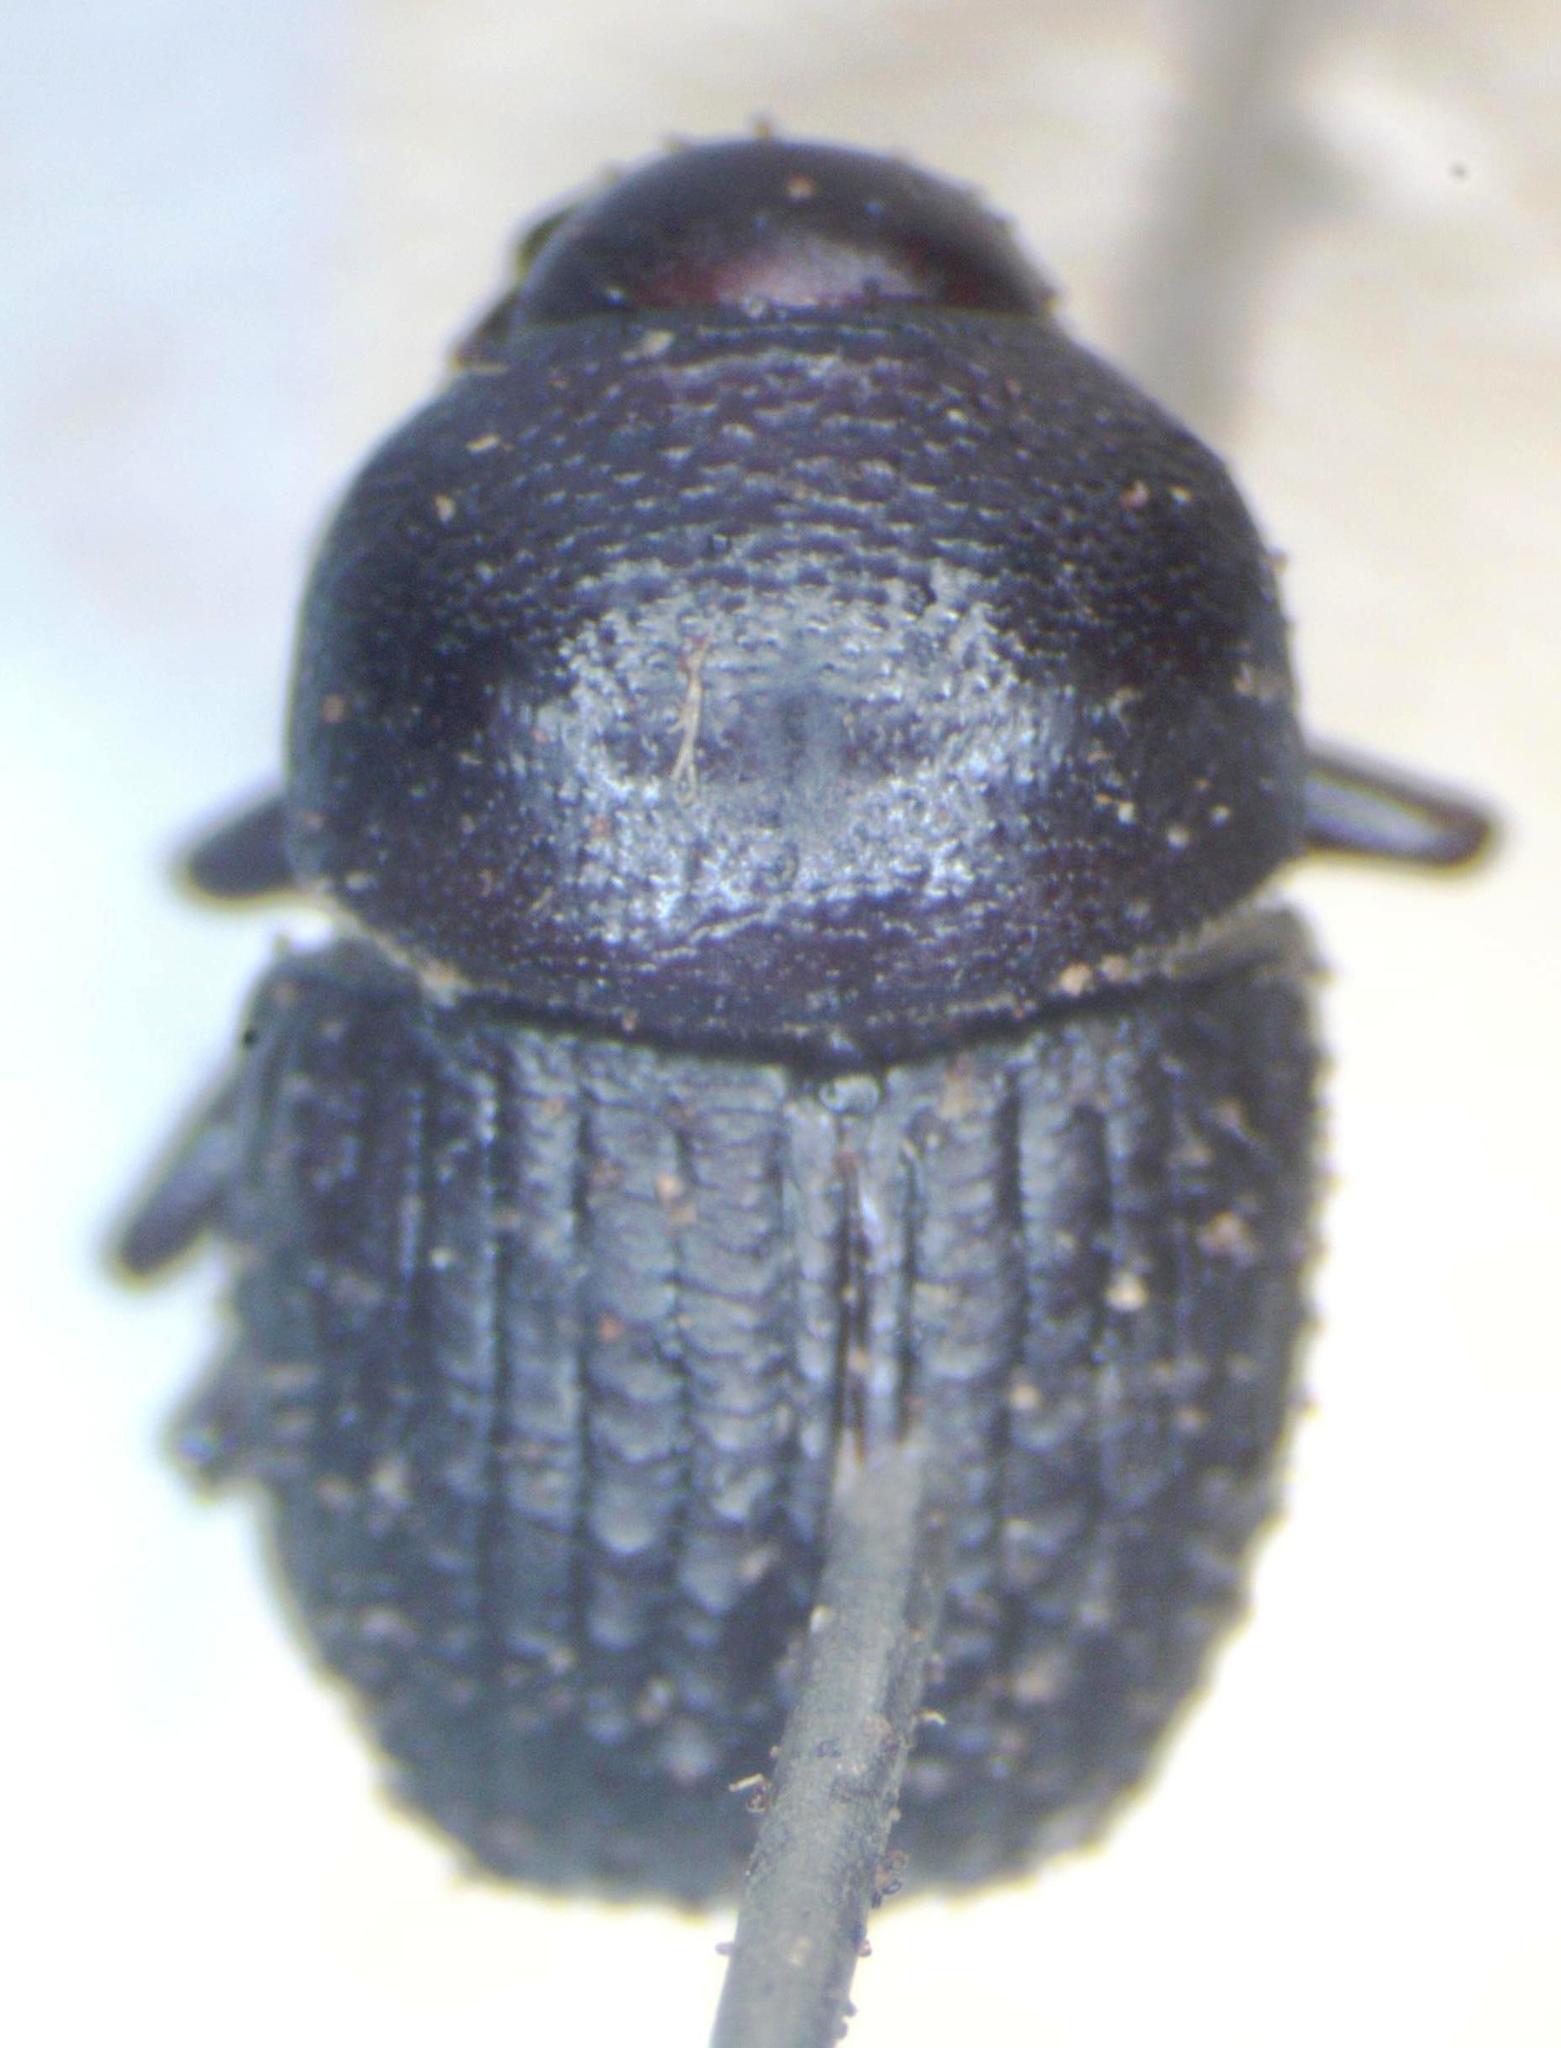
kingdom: Animalia
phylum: Arthropoda
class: Insecta
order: Coleoptera
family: Curculionidae
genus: Phloeoborus
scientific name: Phloeoborus punctatorugosus
